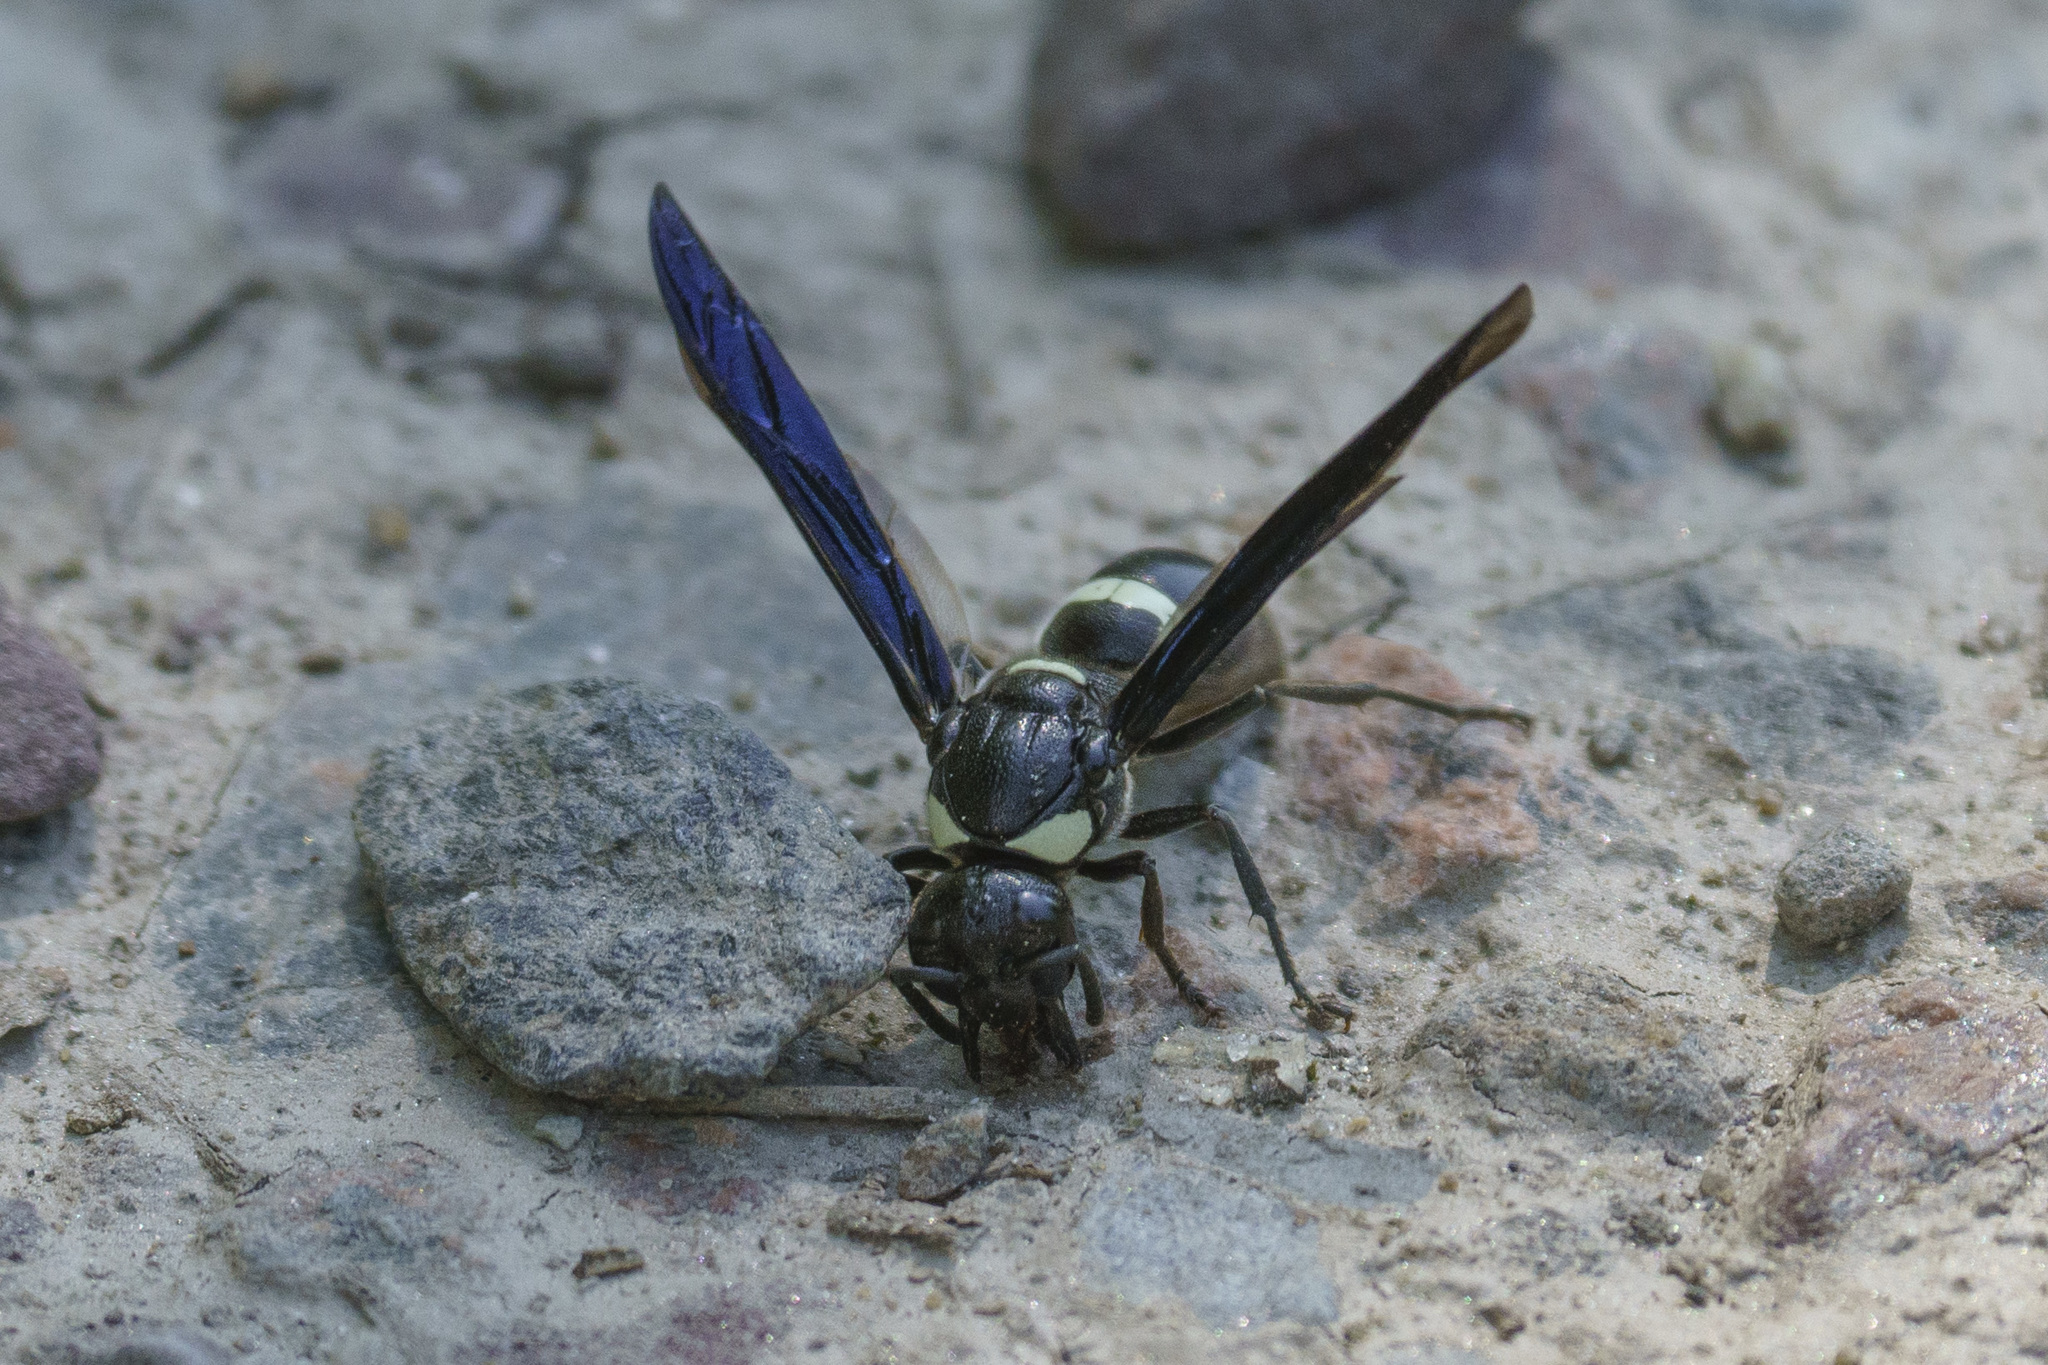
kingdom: Animalia
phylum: Arthropoda
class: Insecta
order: Hymenoptera
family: Eumenidae
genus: Monobia
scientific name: Monobia quadridens
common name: Four-toothed mason wasp
